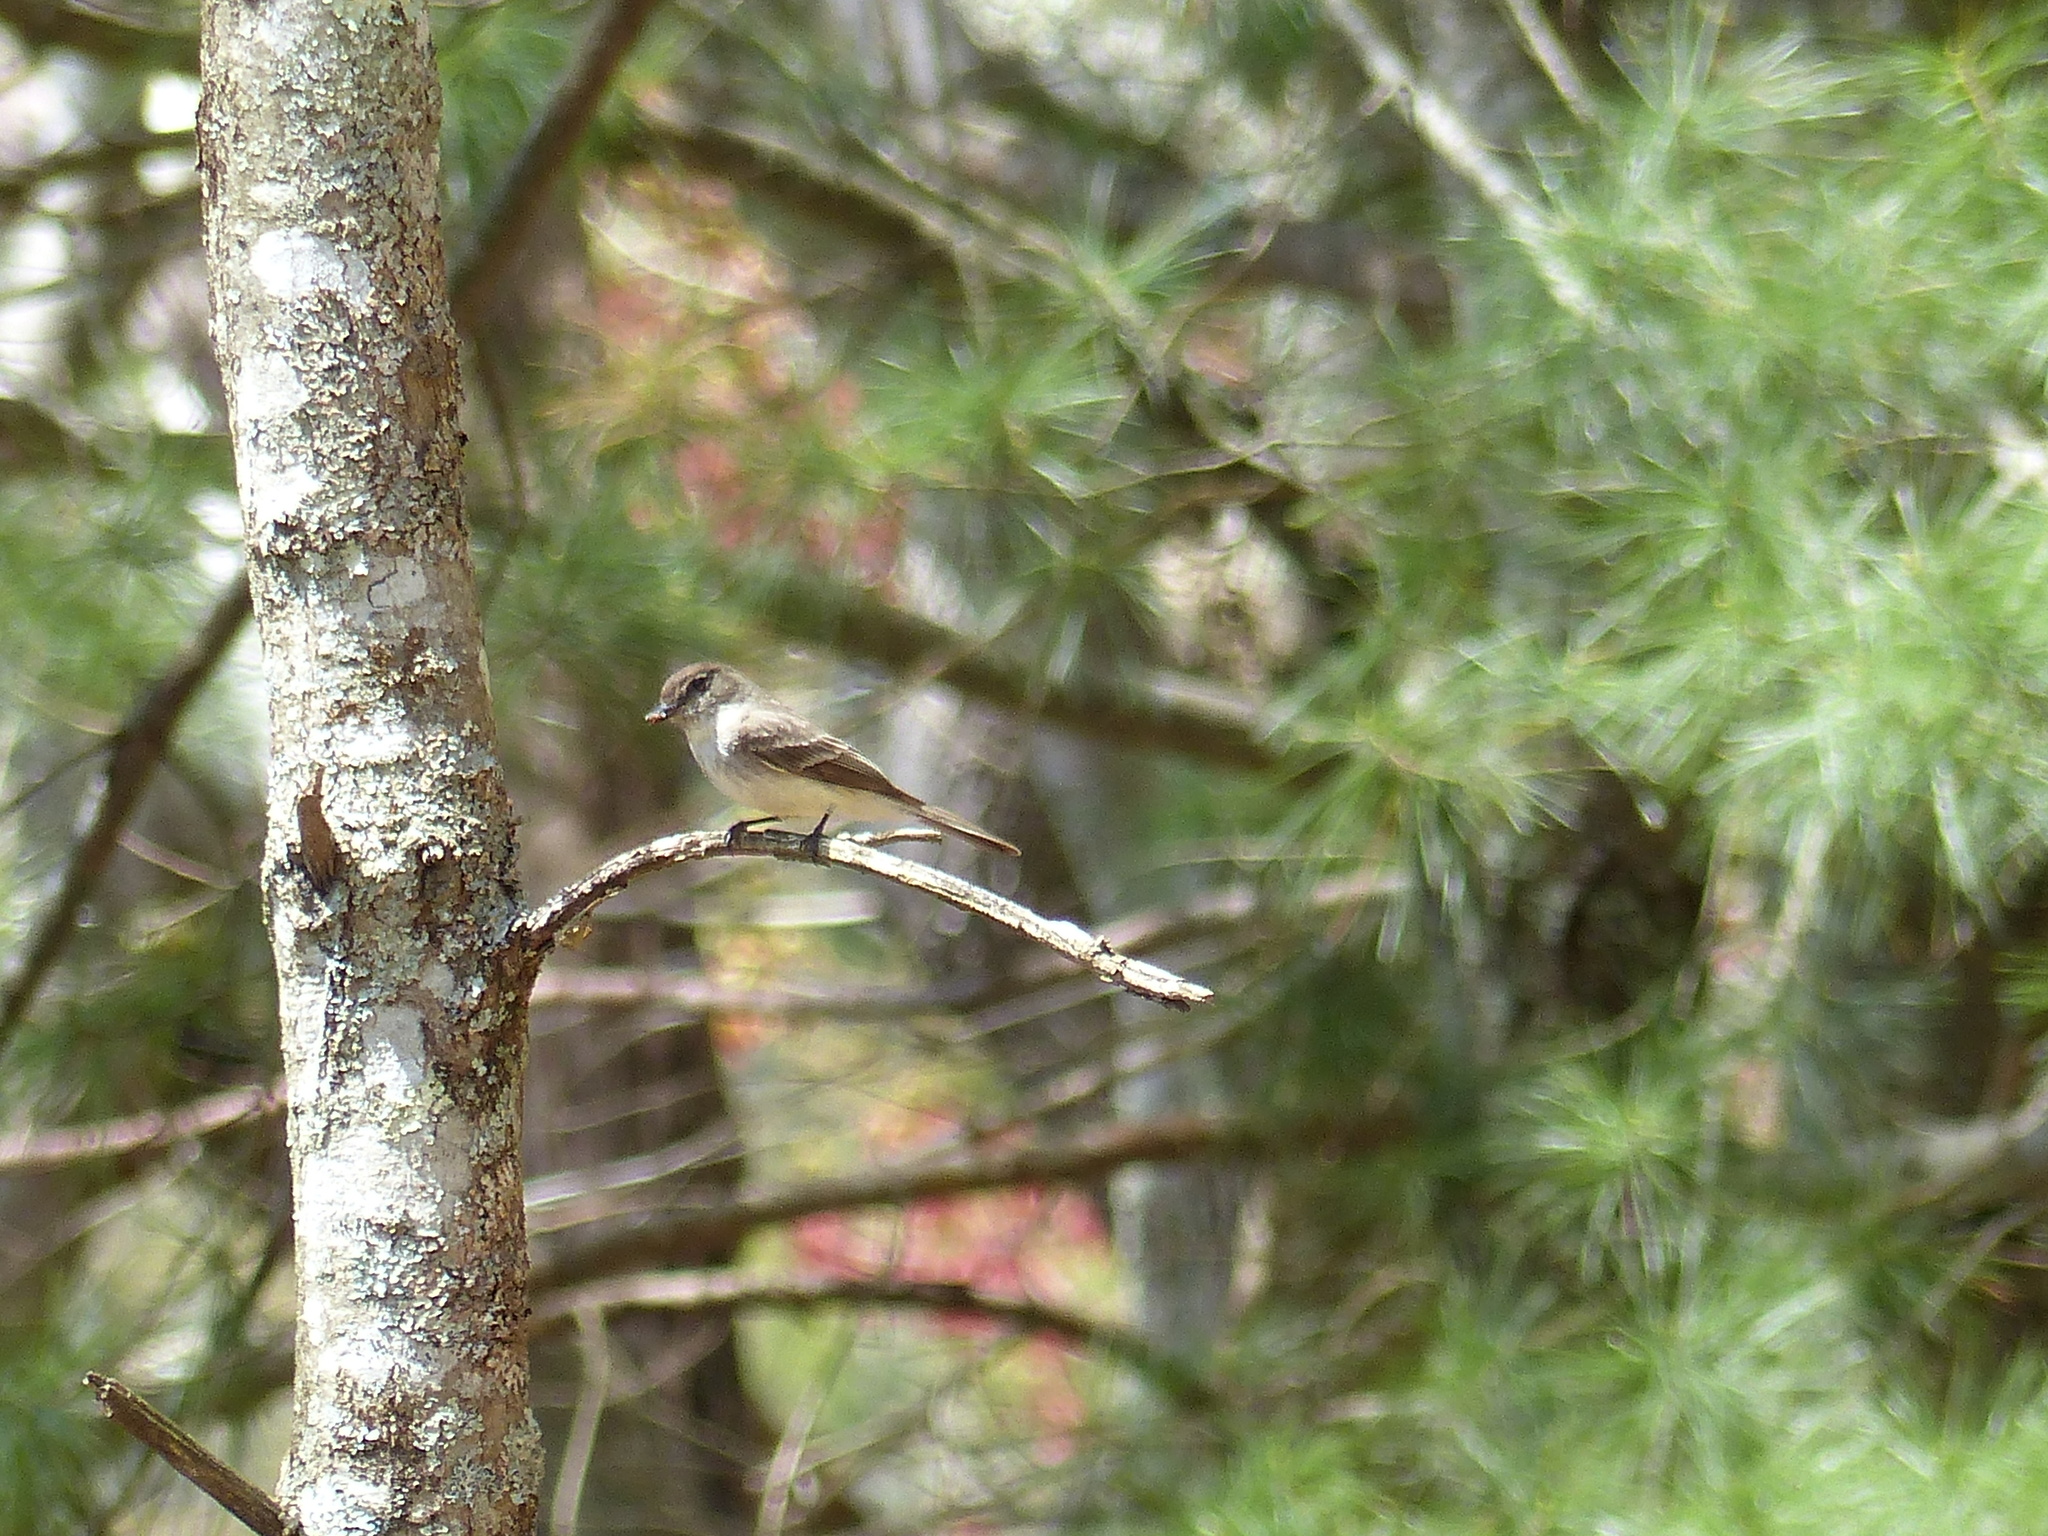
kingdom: Animalia
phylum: Chordata
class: Aves
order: Passeriformes
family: Tyrannidae
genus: Sayornis
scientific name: Sayornis phoebe
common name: Eastern phoebe
